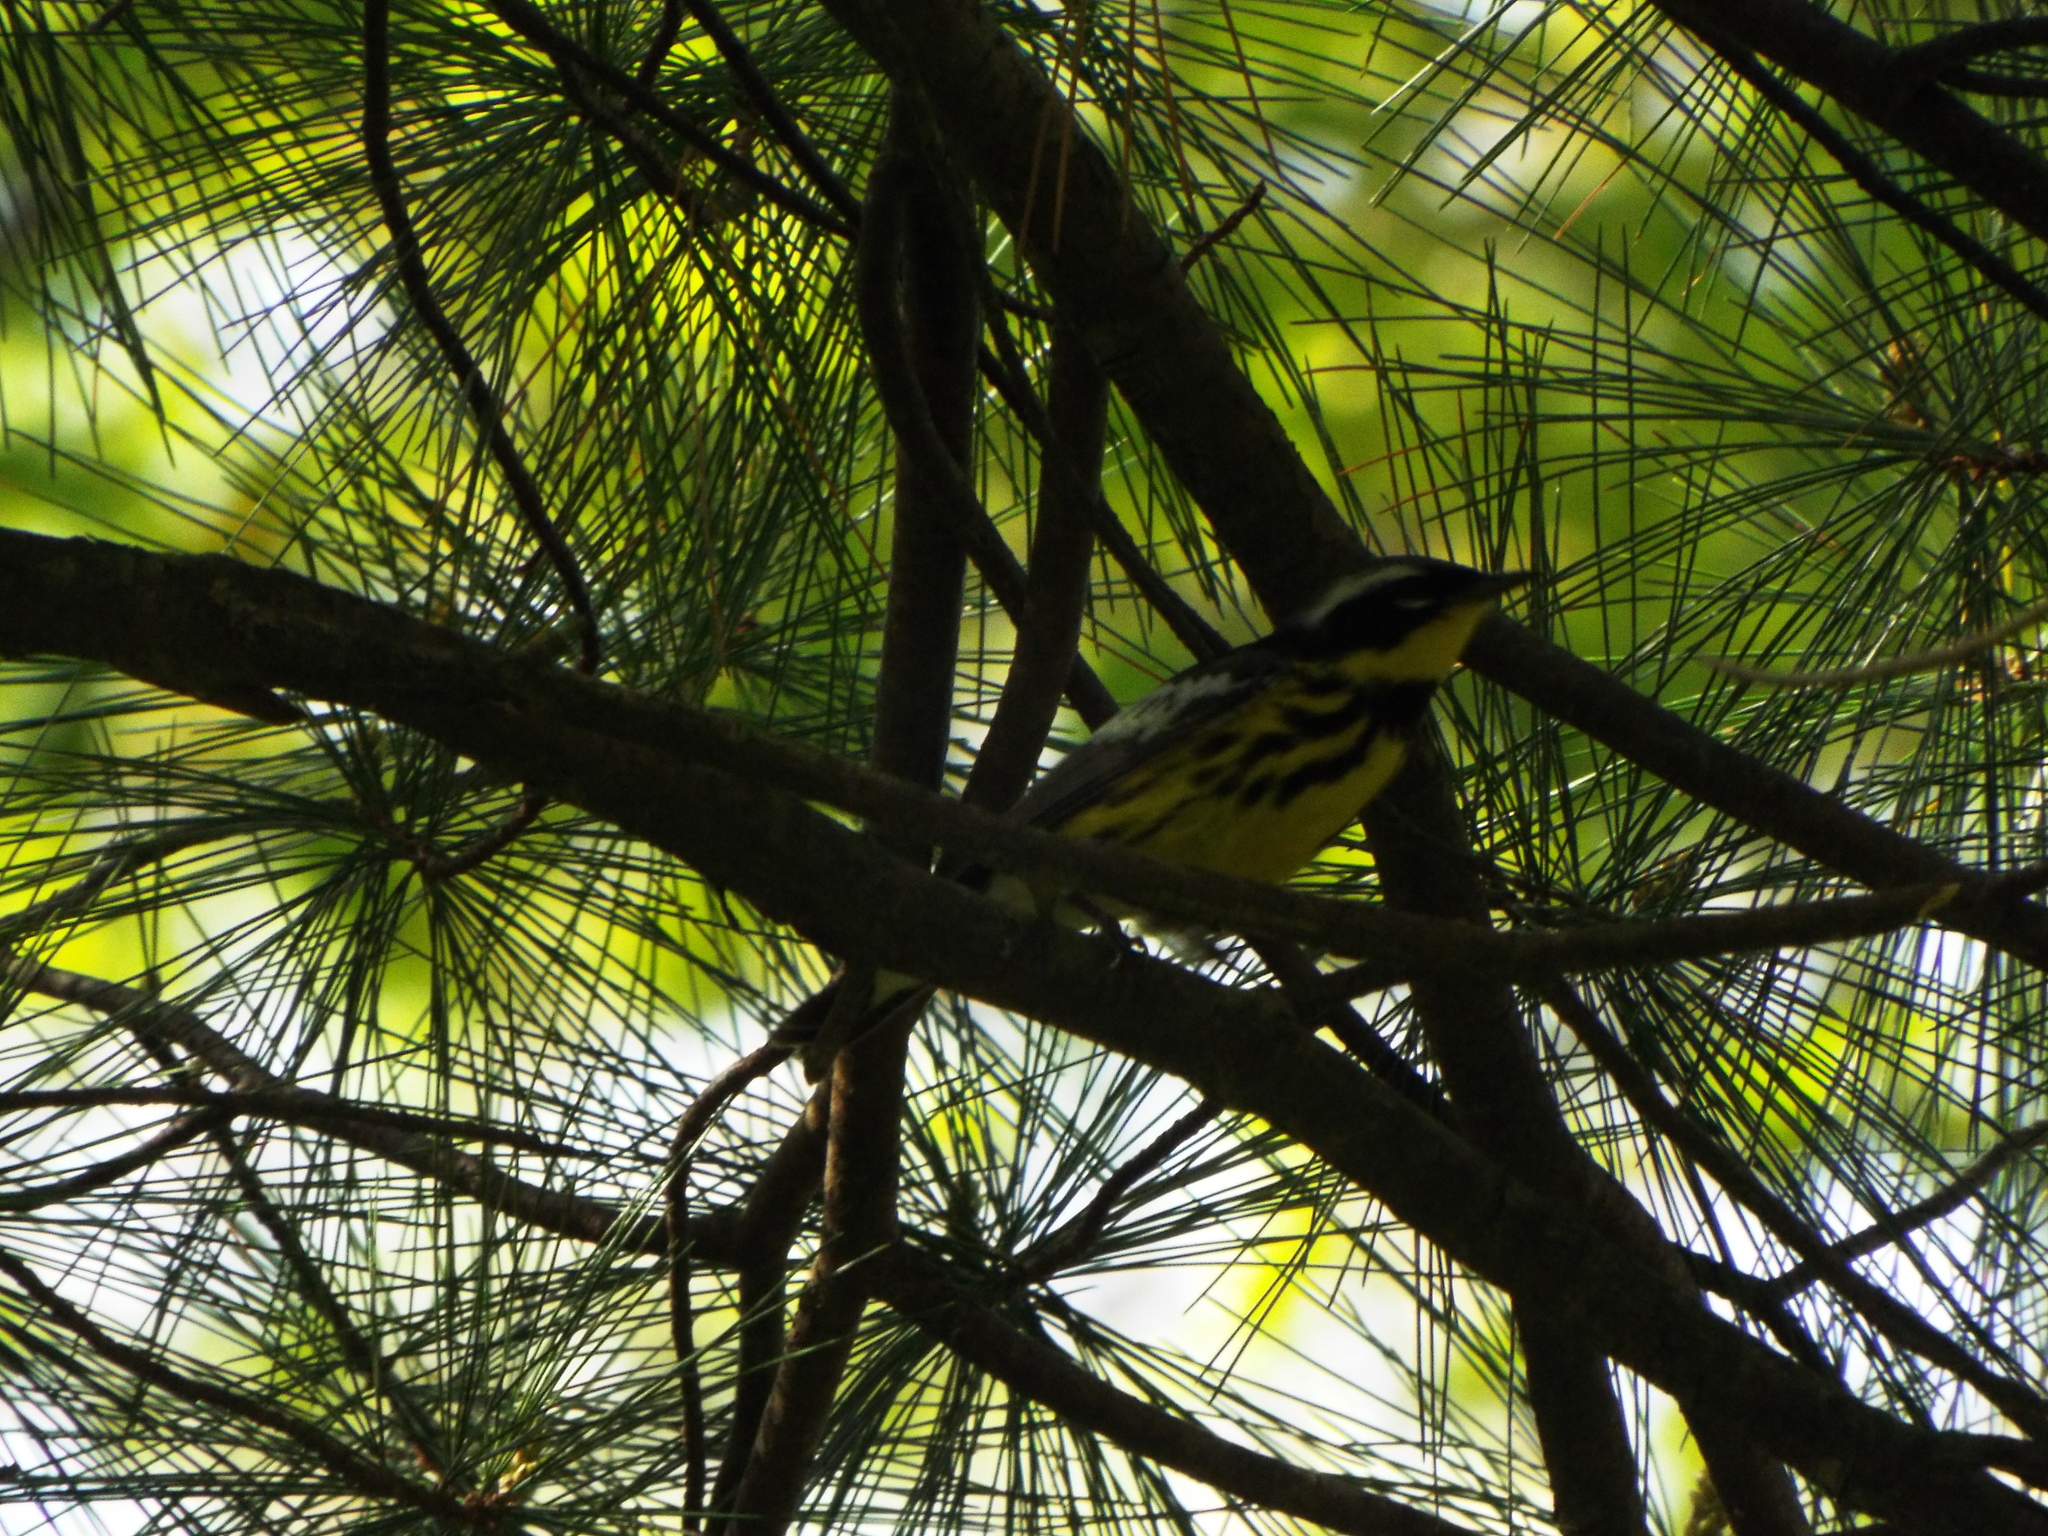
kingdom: Animalia
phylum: Chordata
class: Aves
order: Passeriformes
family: Parulidae
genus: Setophaga
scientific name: Setophaga magnolia
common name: Magnolia warbler
